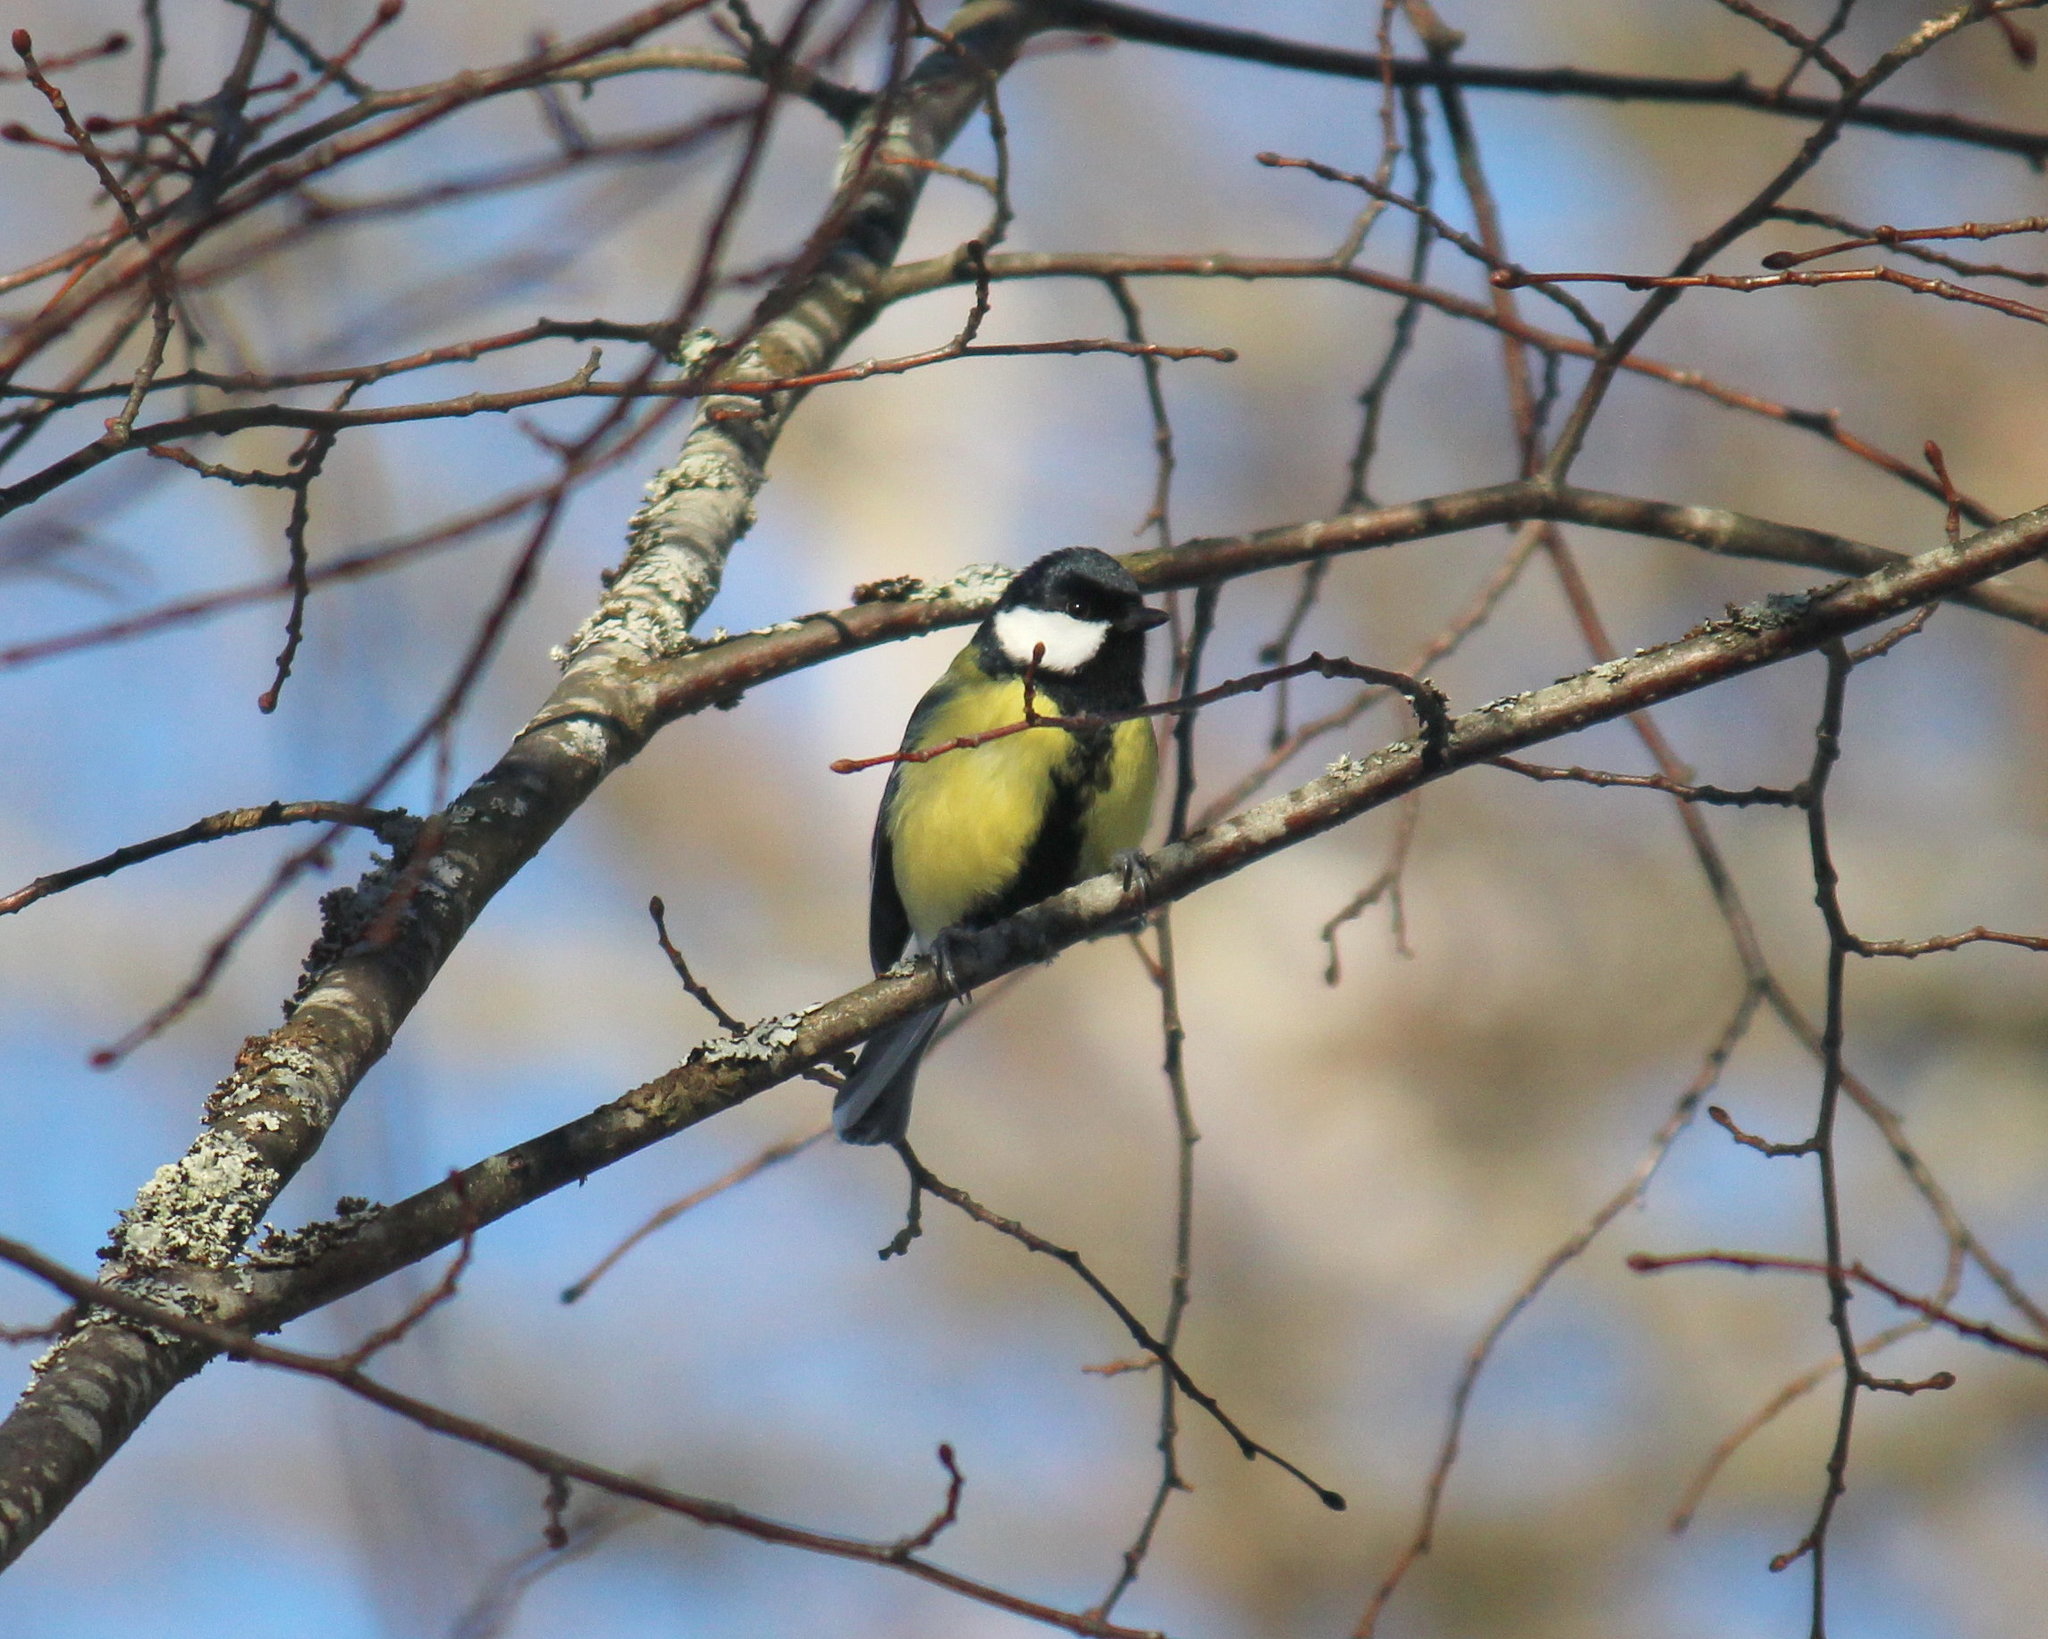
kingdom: Animalia
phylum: Chordata
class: Aves
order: Passeriformes
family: Paridae
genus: Parus
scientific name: Parus major
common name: Great tit
